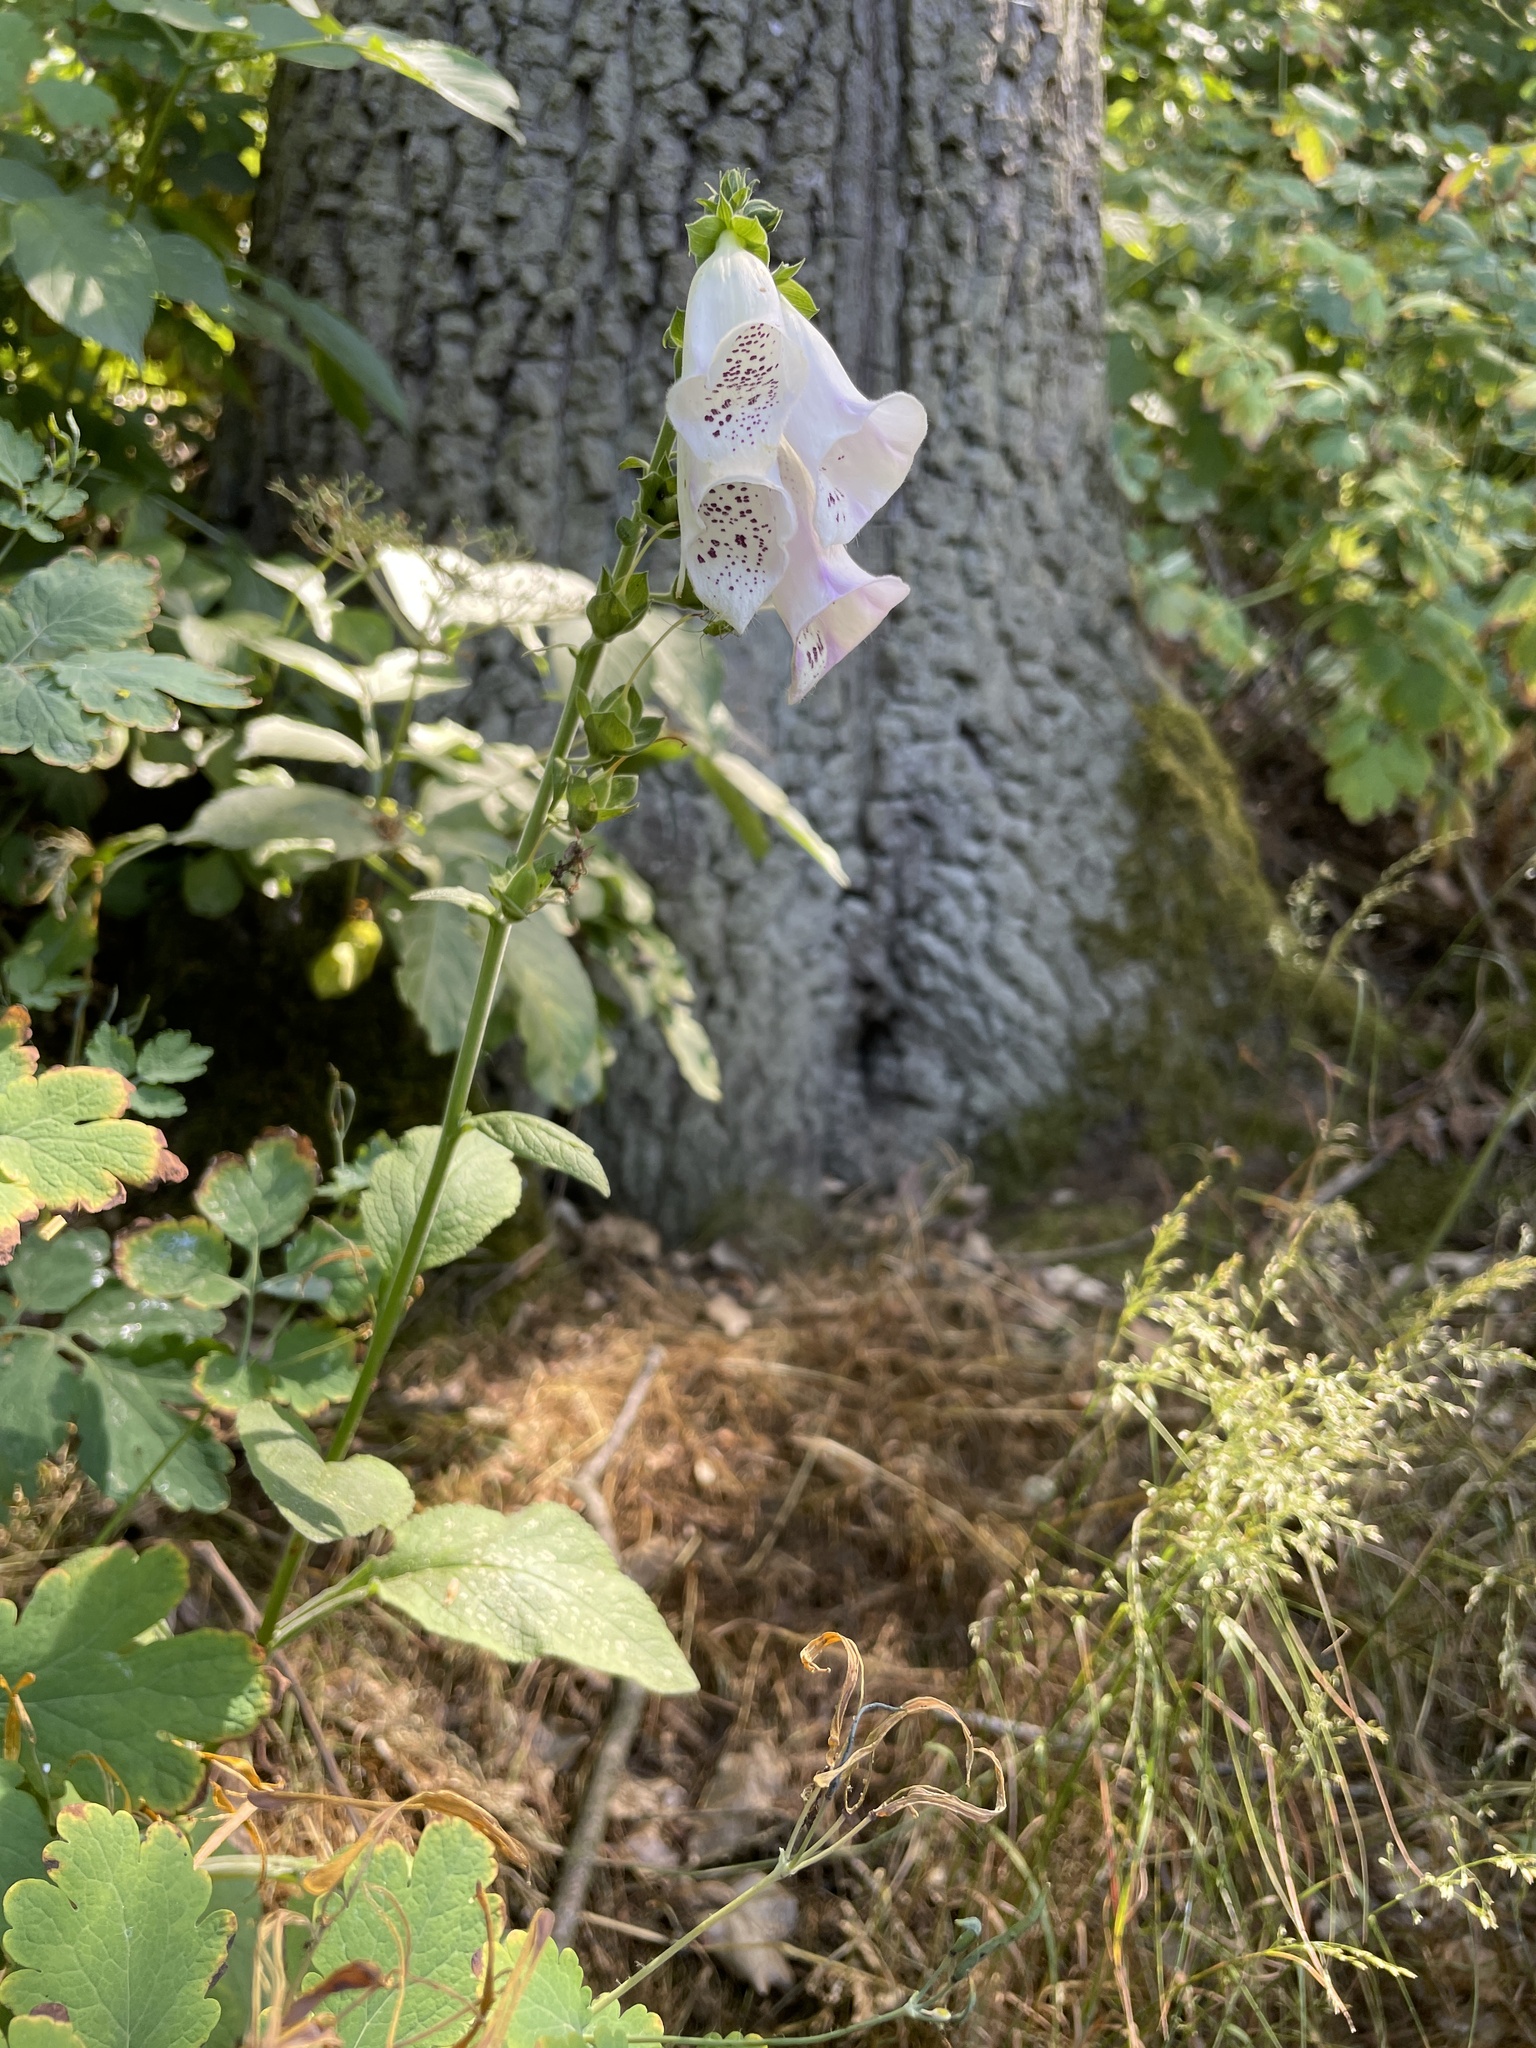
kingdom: Plantae
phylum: Tracheophyta
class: Magnoliopsida
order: Lamiales
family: Plantaginaceae
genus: Digitalis
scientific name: Digitalis purpurea
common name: Foxglove
